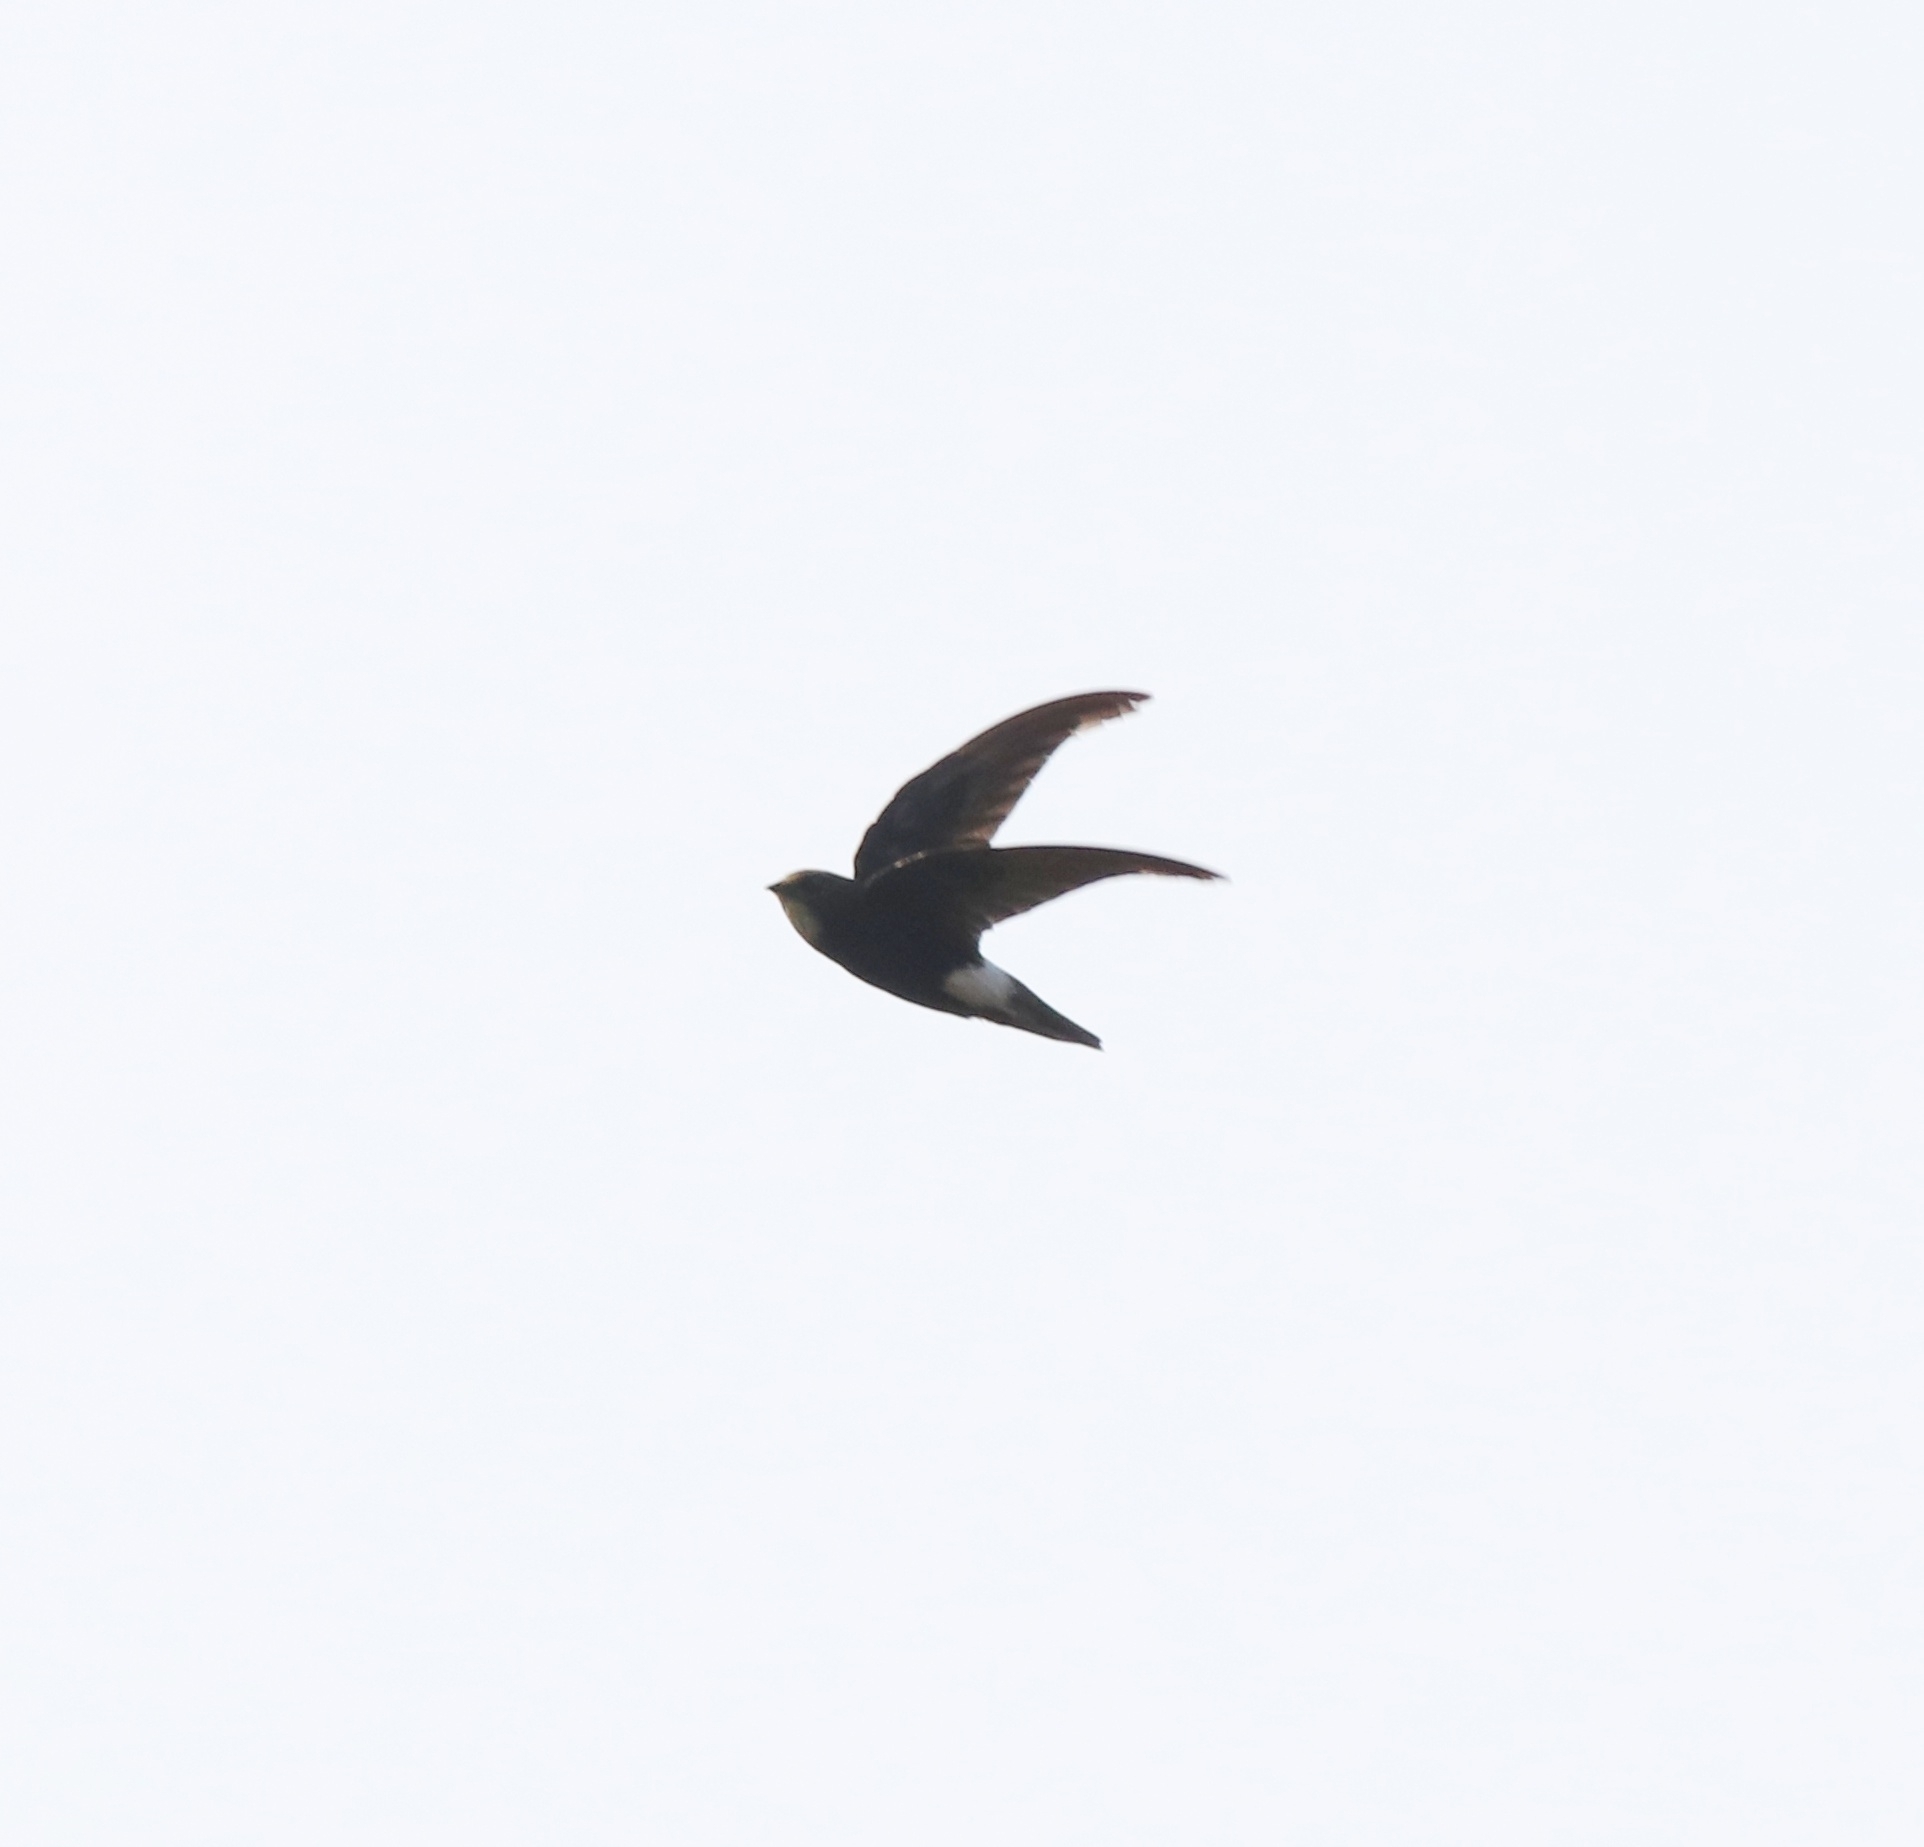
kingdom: Animalia
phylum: Chordata
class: Aves
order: Apodiformes
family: Apodidae
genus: Apus
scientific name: Apus affinis
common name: Little swift
